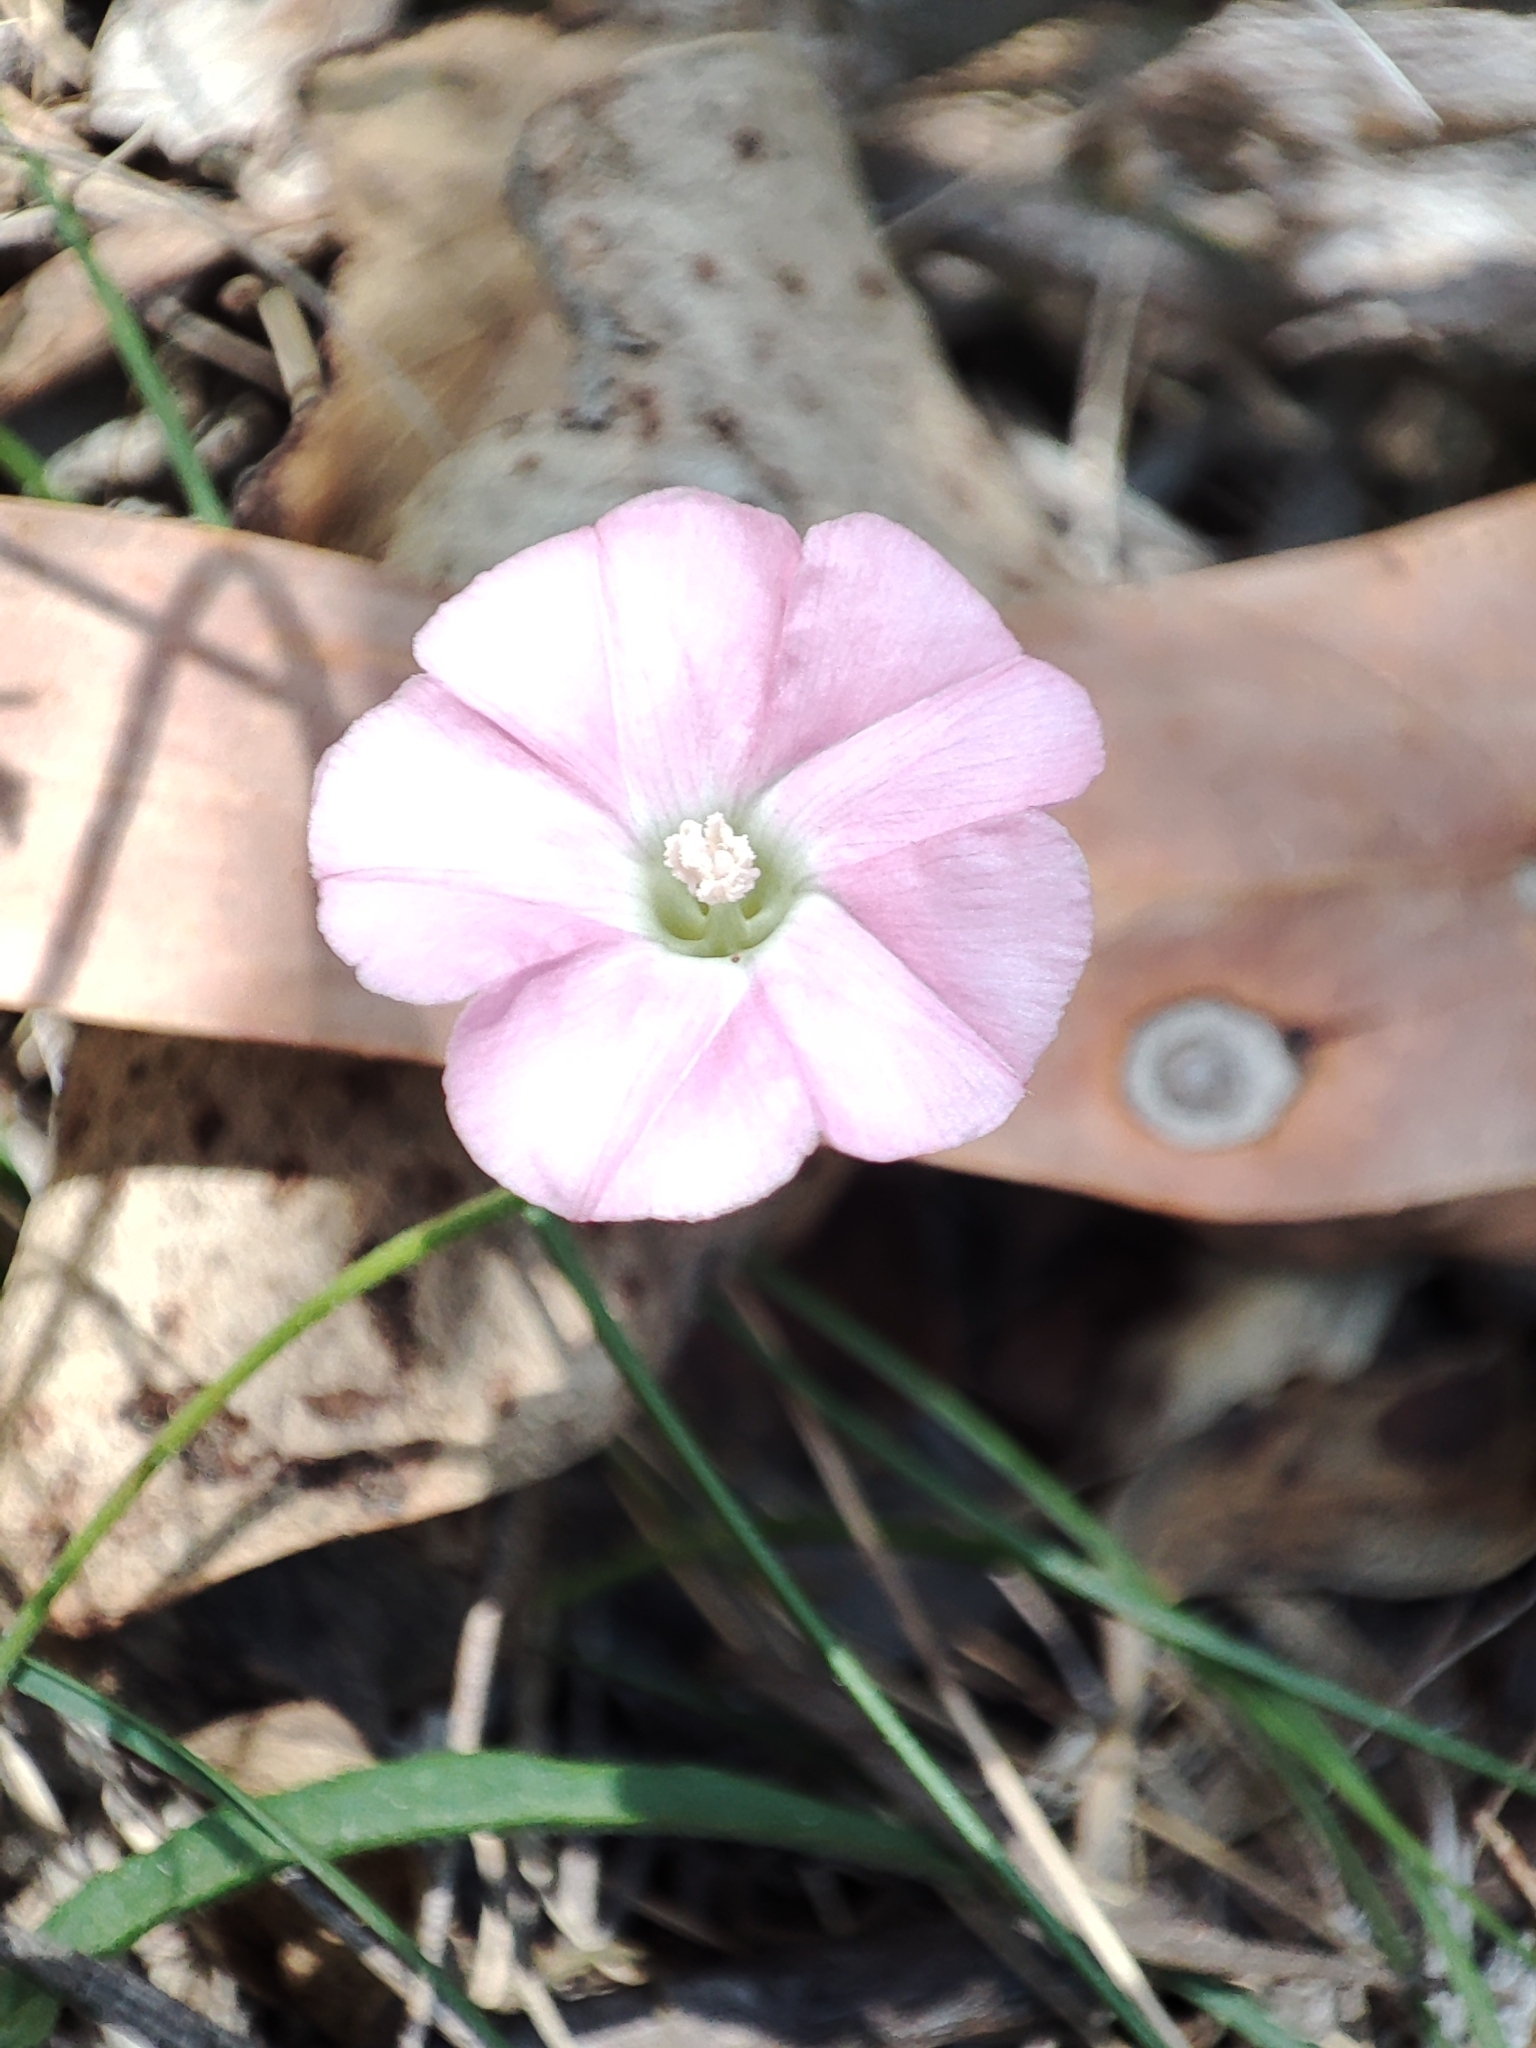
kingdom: Plantae
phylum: Tracheophyta
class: Magnoliopsida
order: Solanales
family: Convolvulaceae
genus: Convolvulus
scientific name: Convolvulus angustissimus
